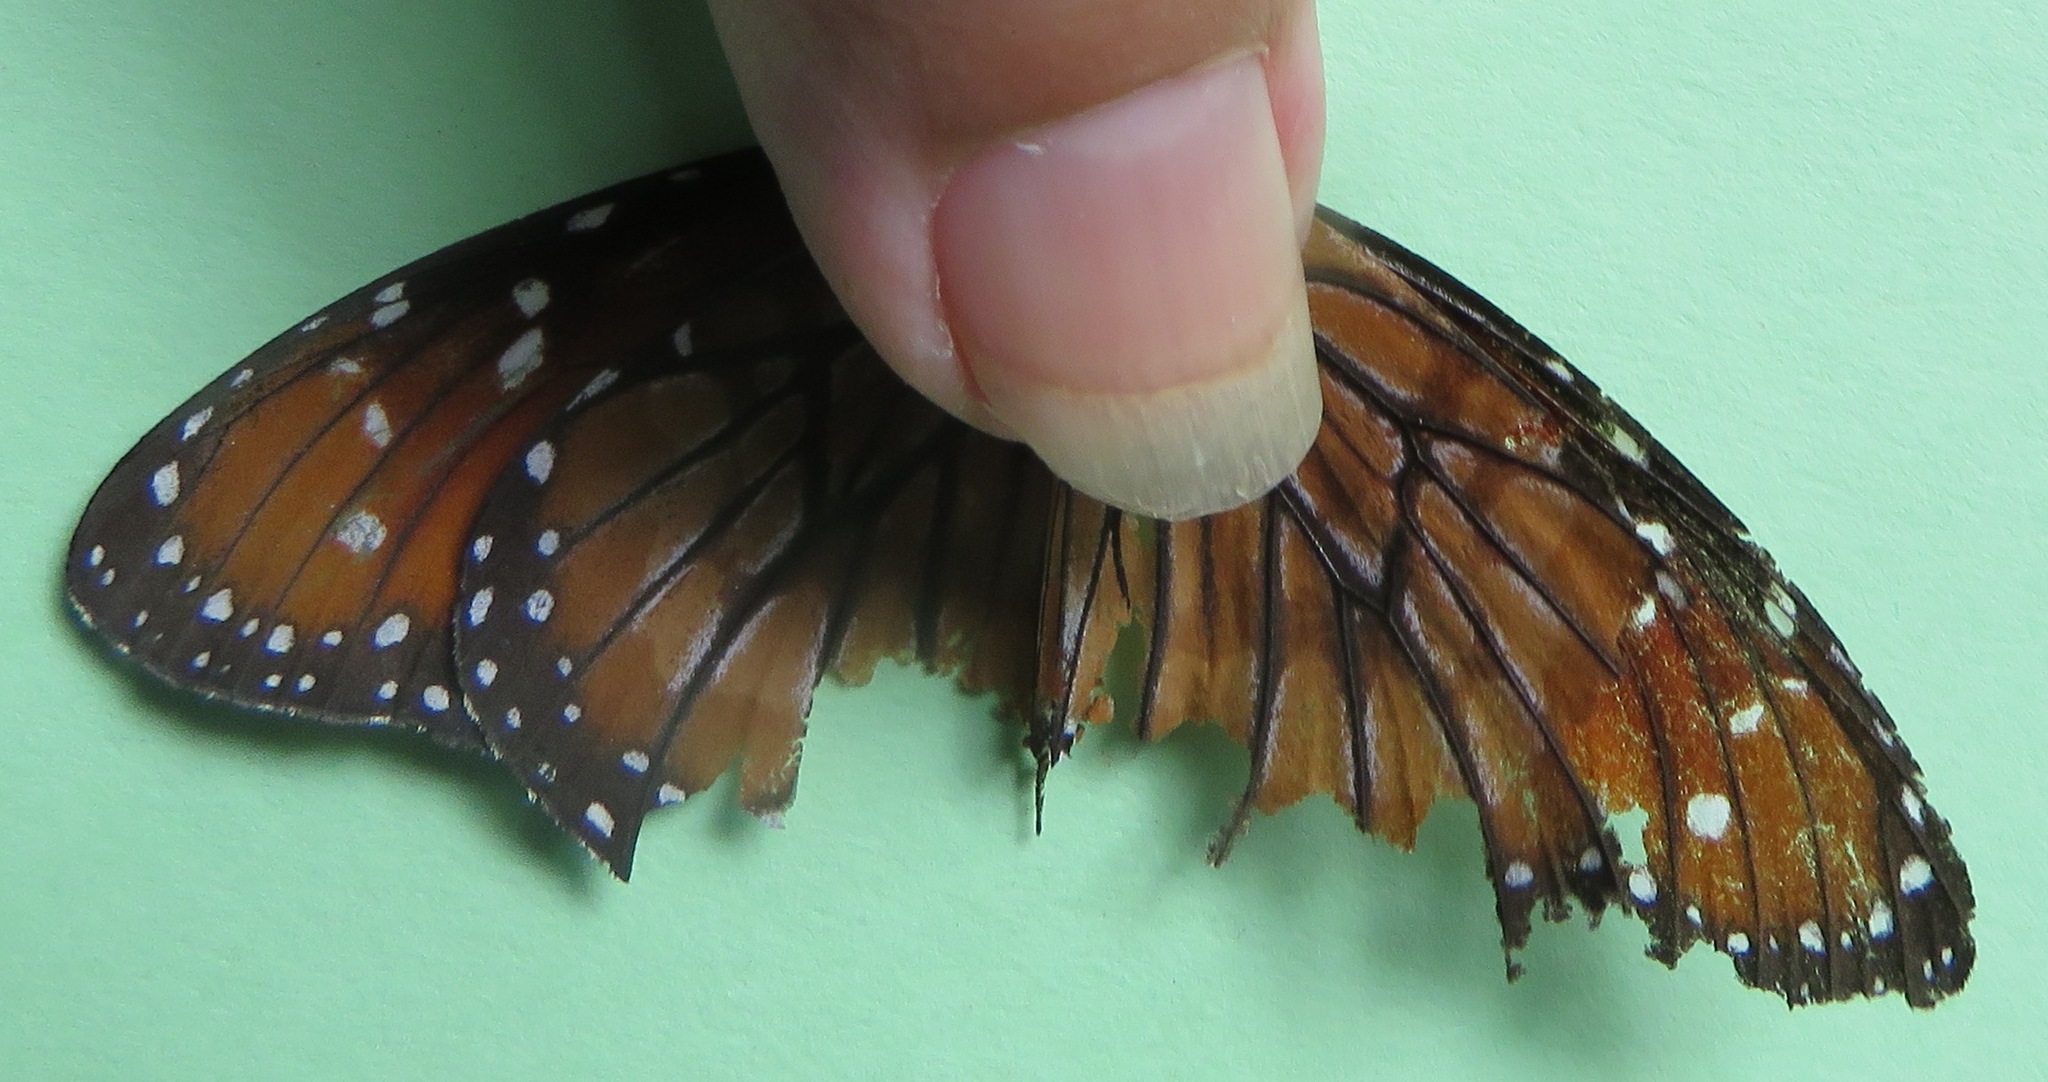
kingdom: Animalia
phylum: Arthropoda
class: Insecta
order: Lepidoptera
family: Nymphalidae
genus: Danaus
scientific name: Danaus eresimus
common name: Soldier
